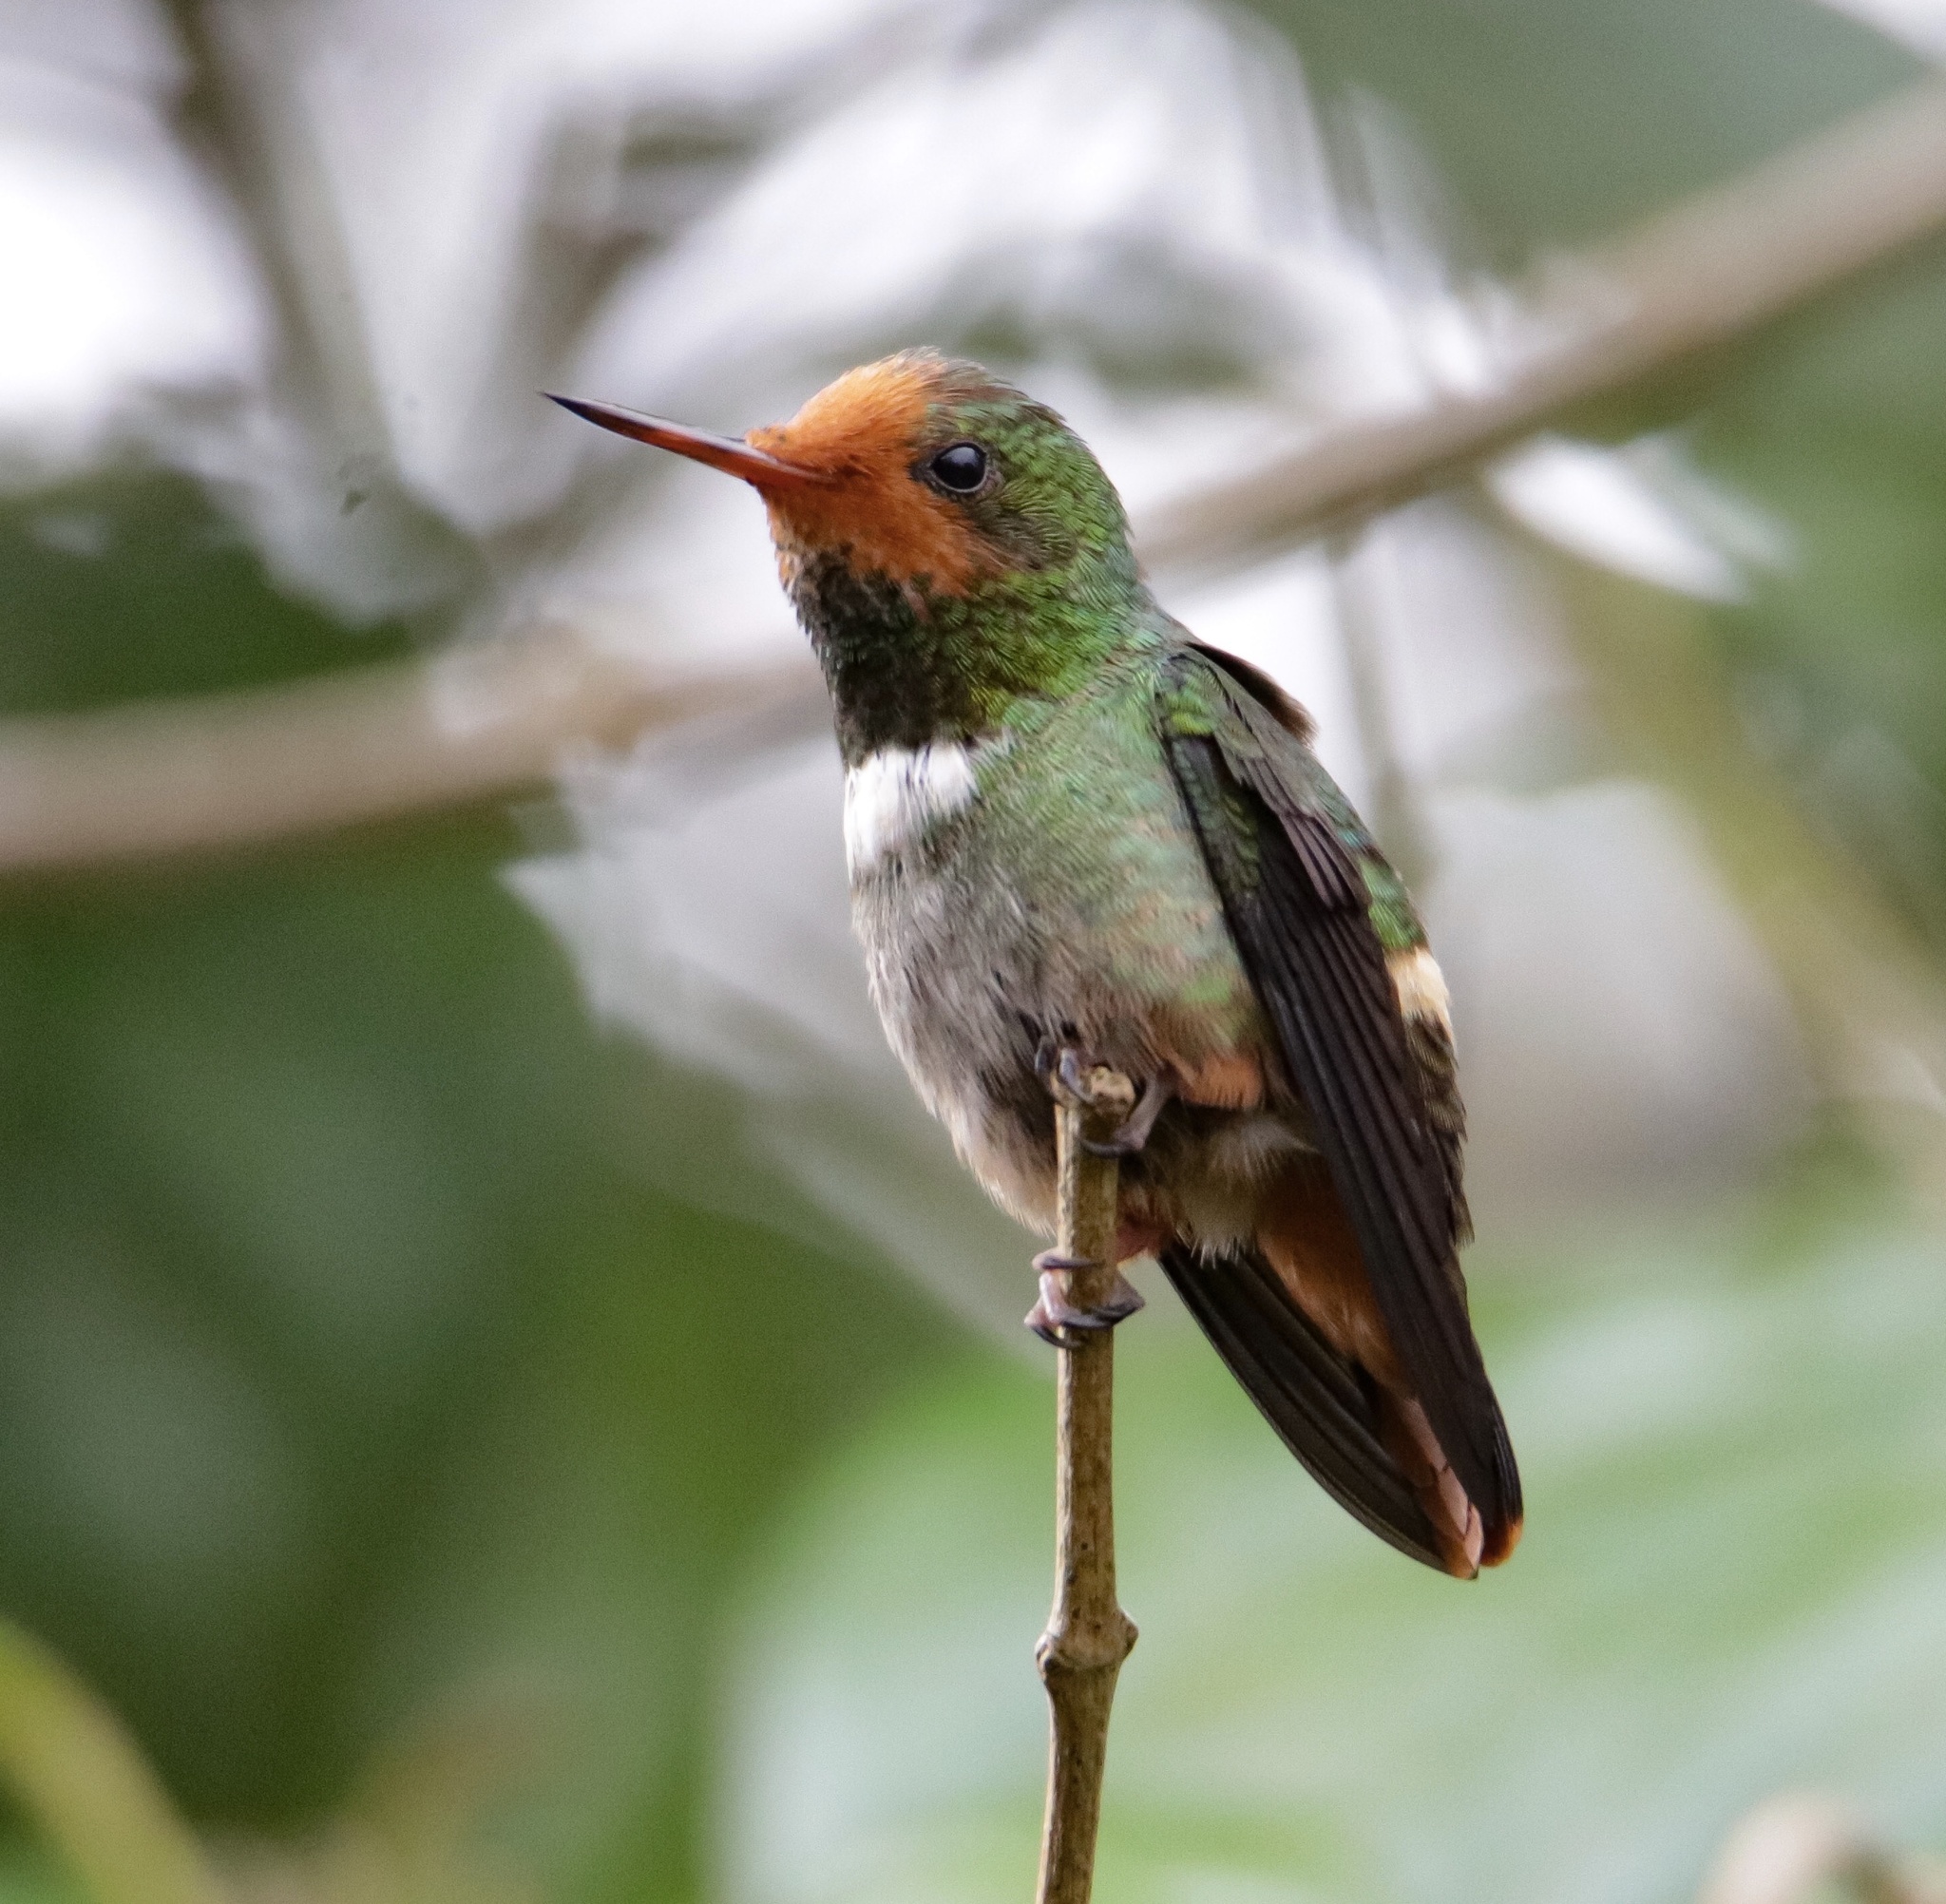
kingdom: Animalia
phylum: Chordata
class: Aves
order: Apodiformes
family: Trochilidae
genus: Lophornis
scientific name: Lophornis delattrei
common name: Rufous-crested coquette
